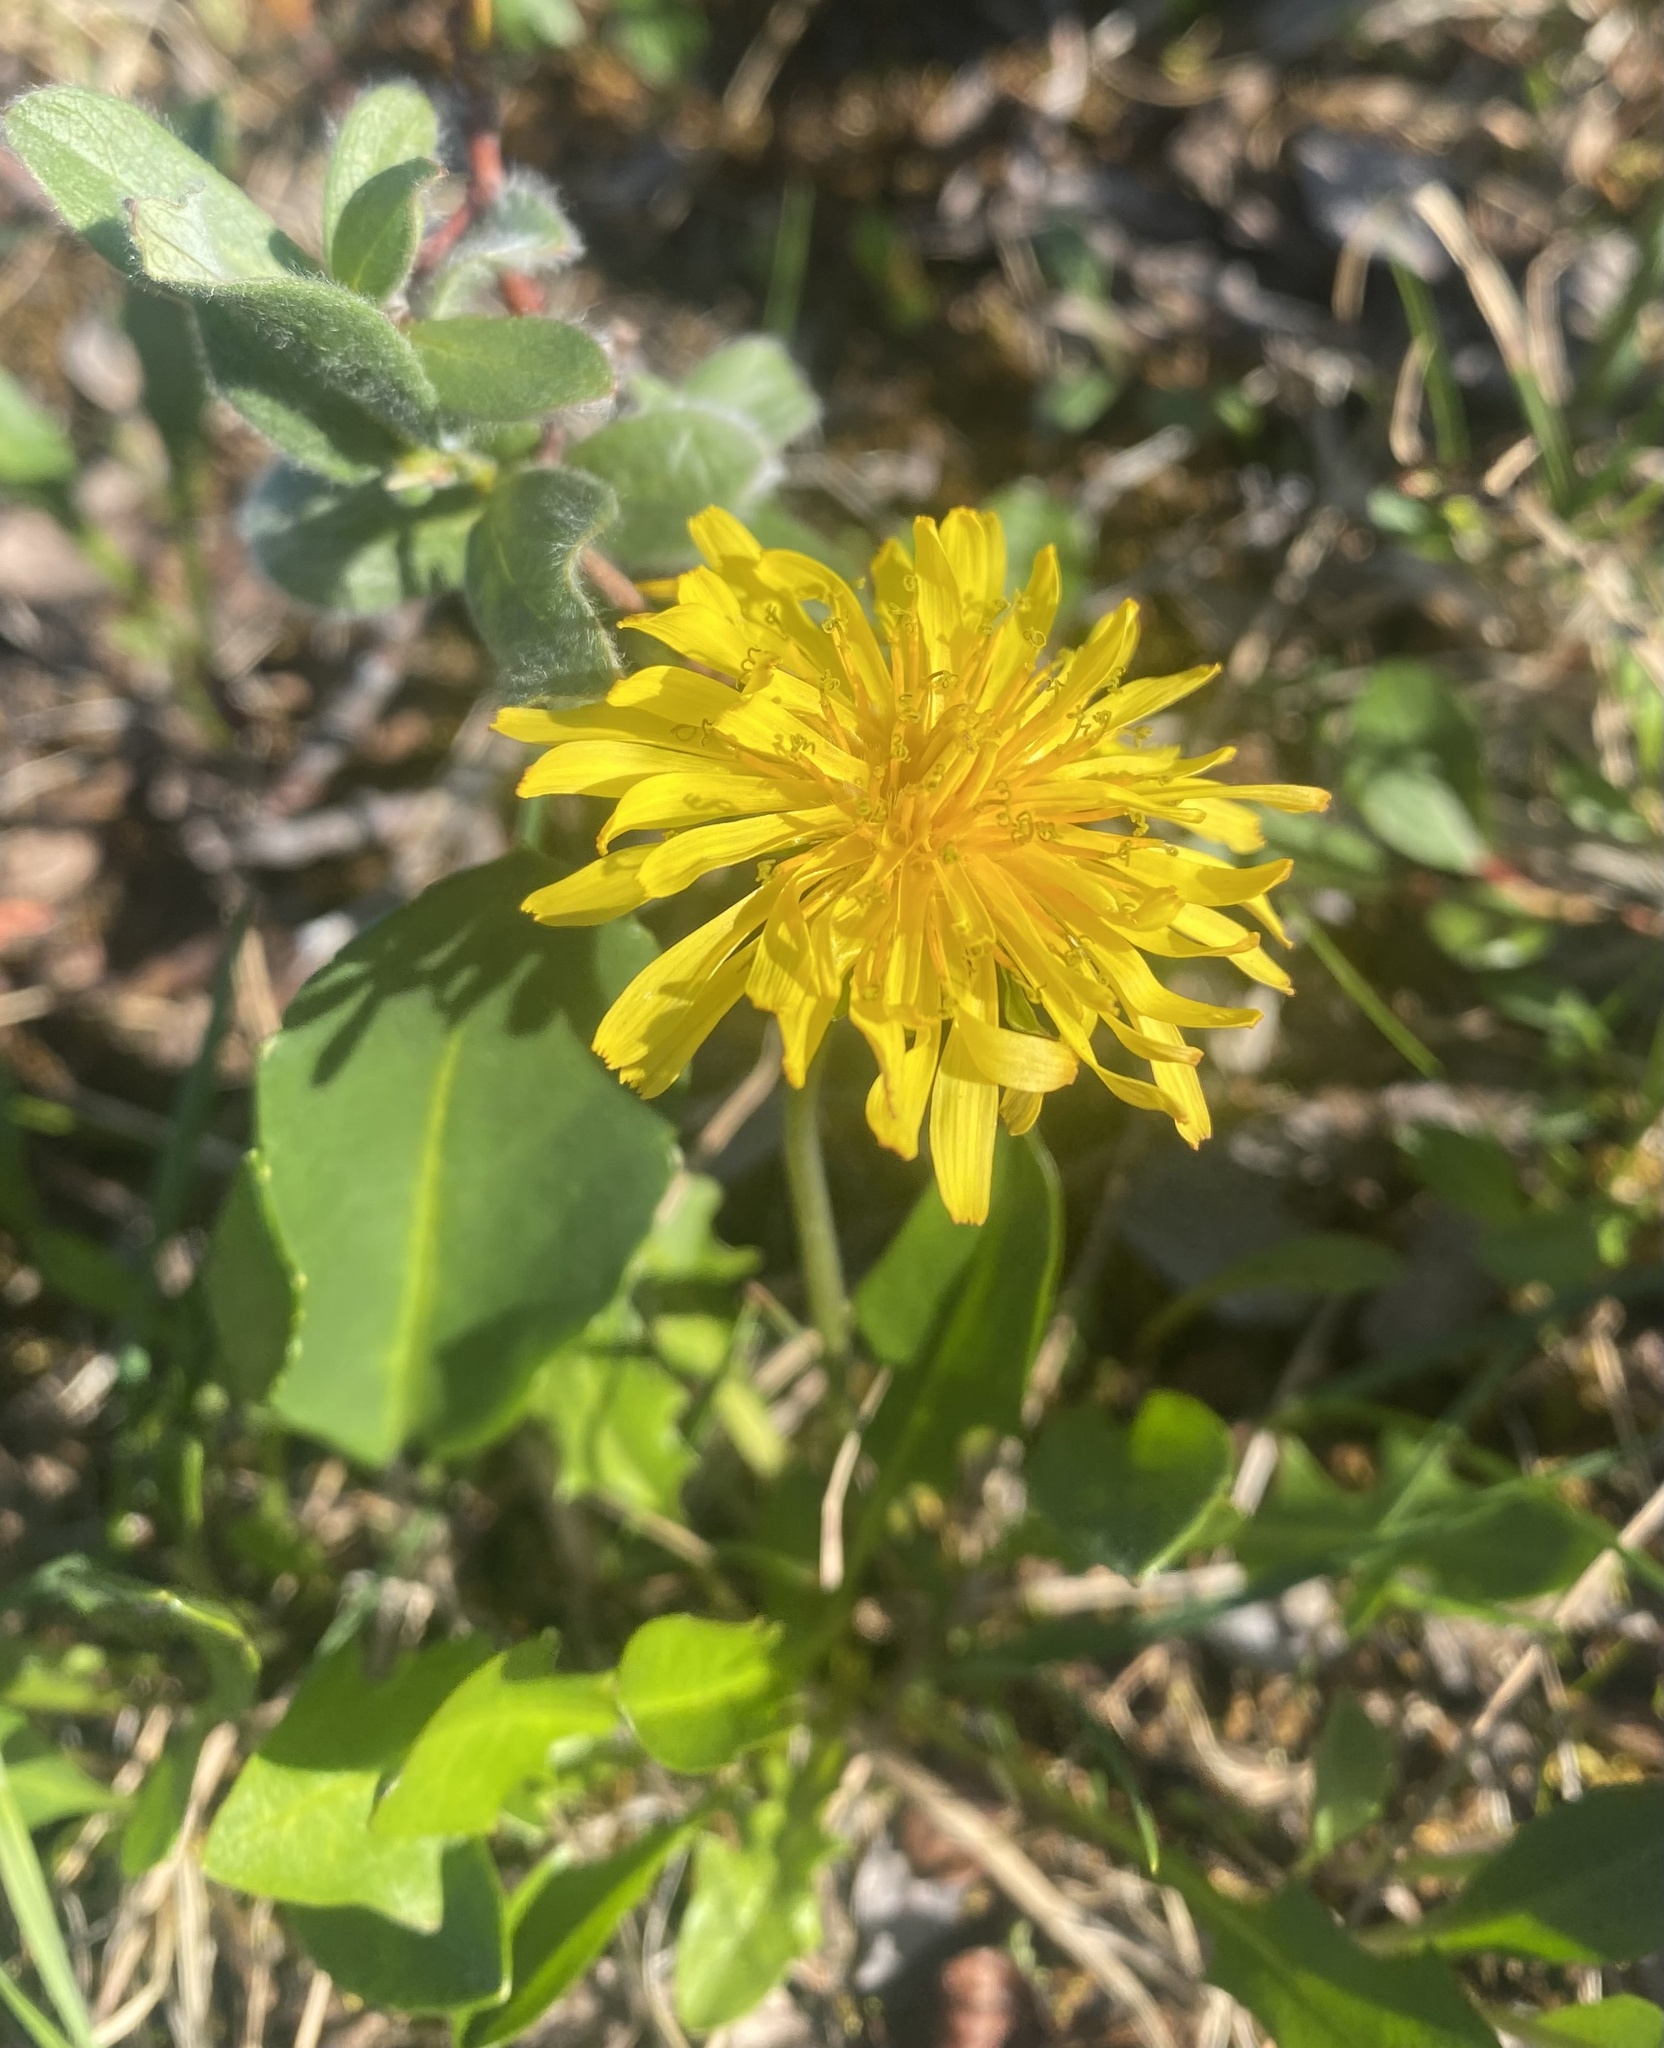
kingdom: Plantae
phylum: Tracheophyta
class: Magnoliopsida
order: Asterales
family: Asteraceae
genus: Taraxacum
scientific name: Taraxacum glabrum
